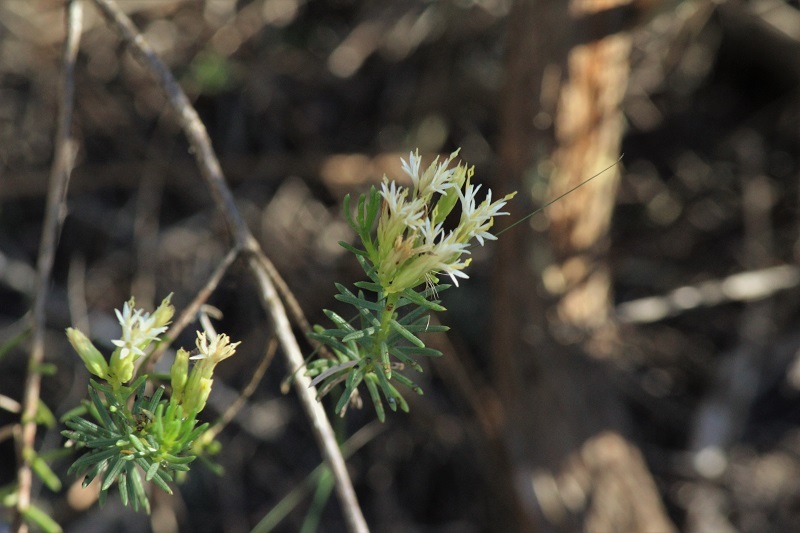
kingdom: Plantae
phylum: Tracheophyta
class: Magnoliopsida
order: Asterales
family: Asteraceae
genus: Pteronia
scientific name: Pteronia teretifolia
